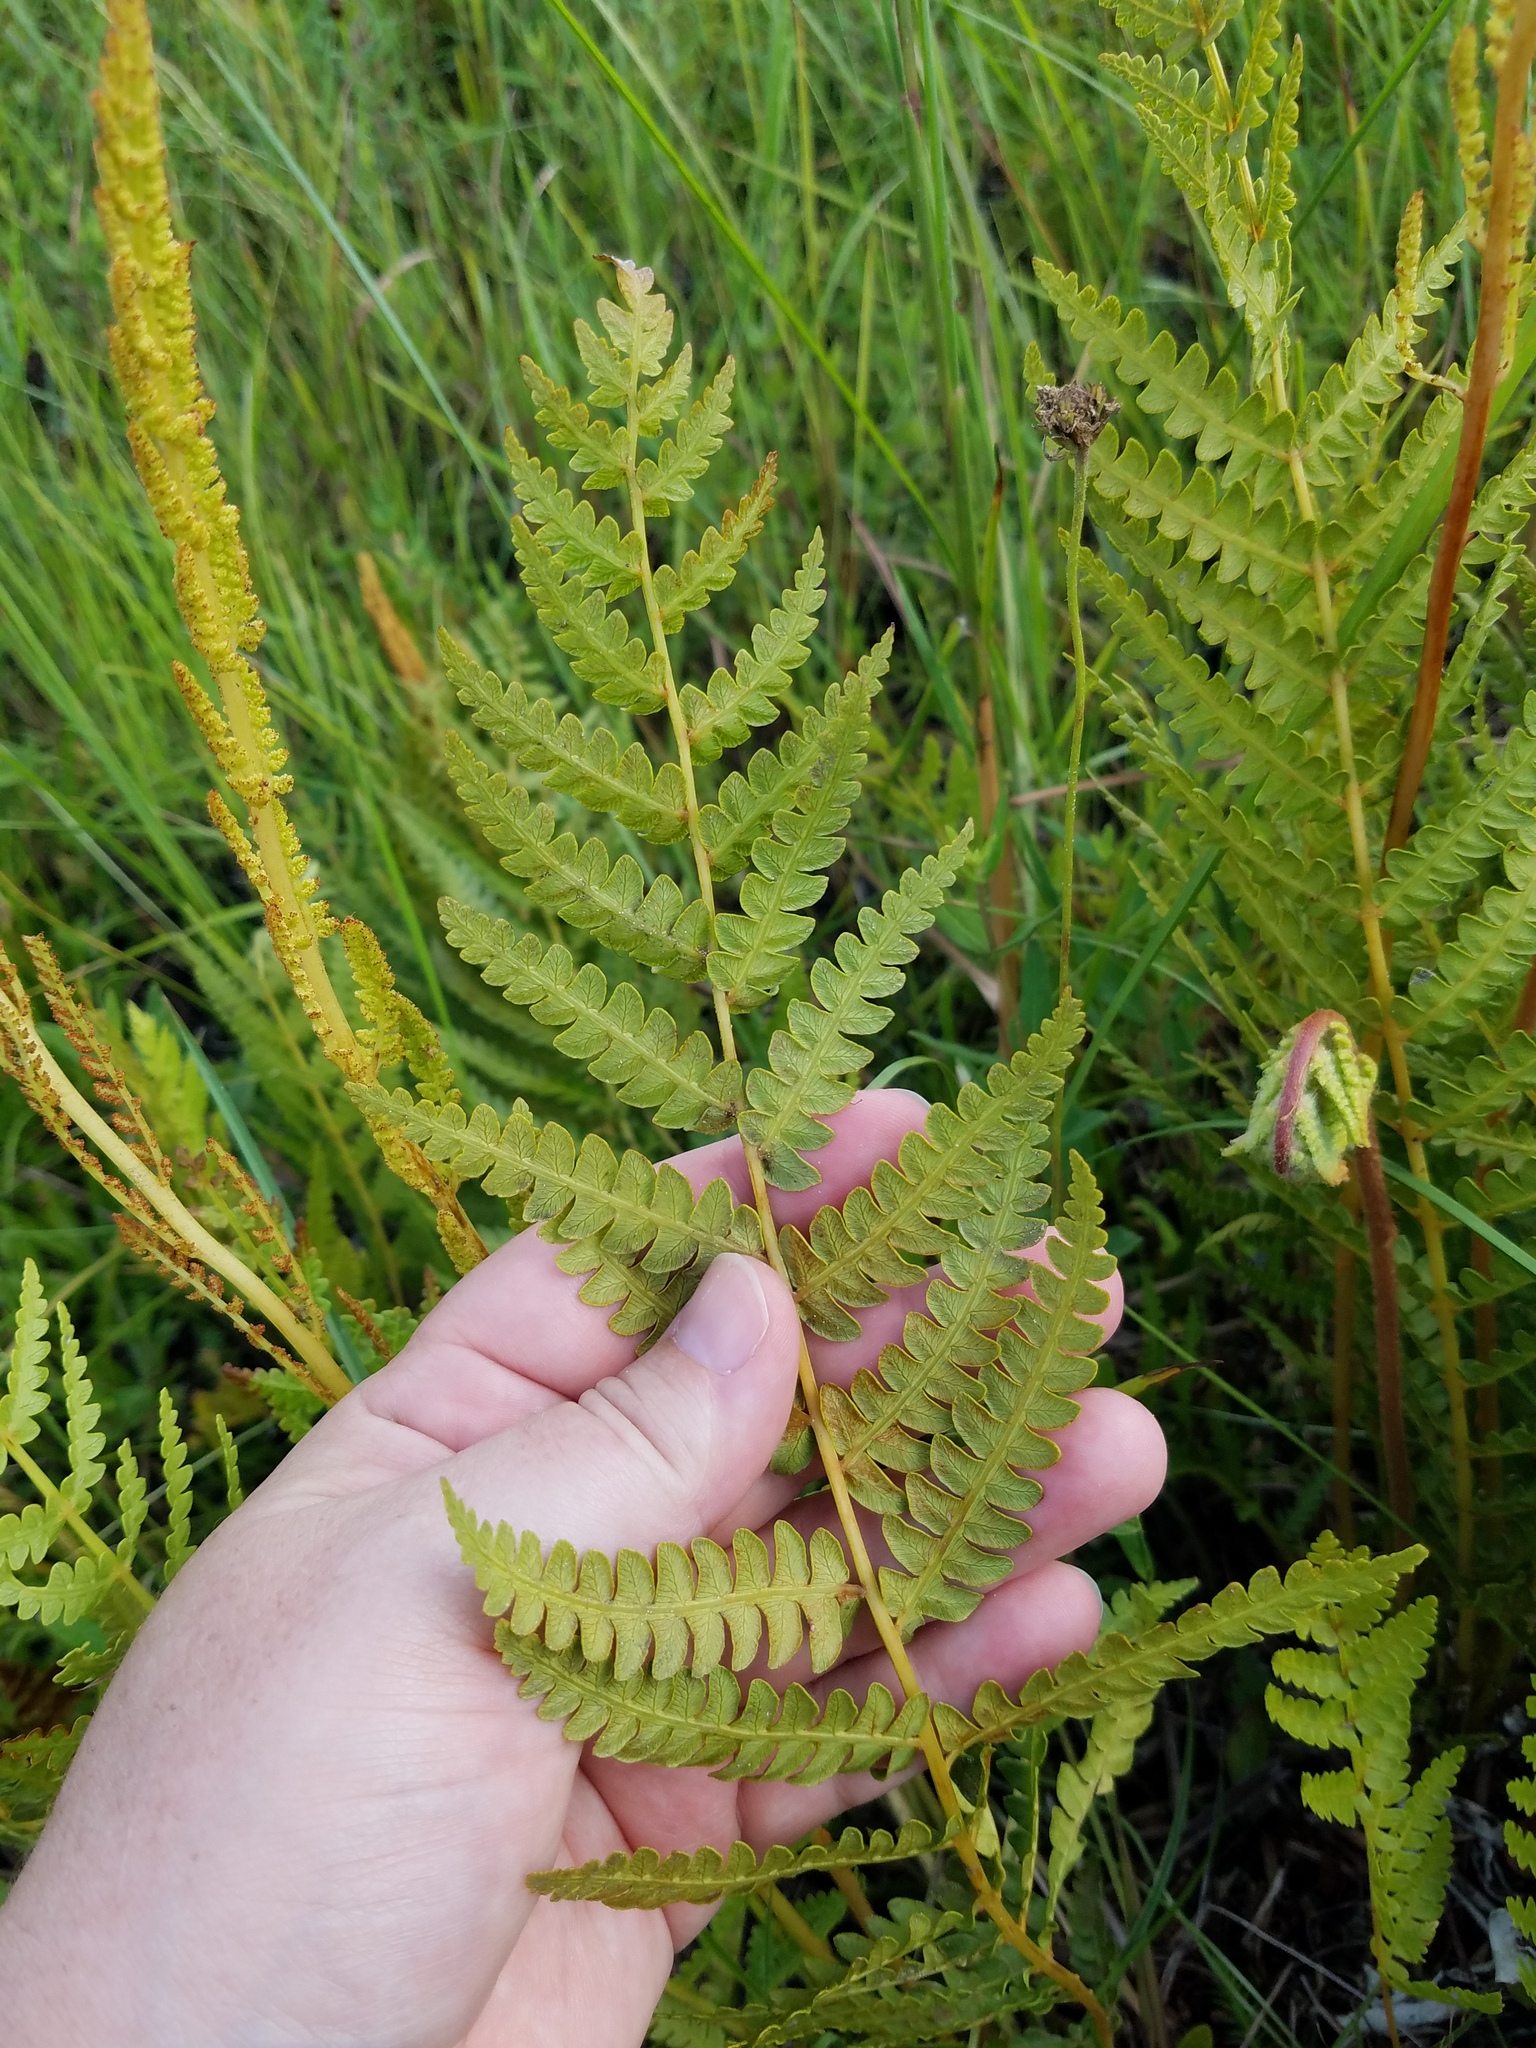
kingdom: Plantae
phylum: Tracheophyta
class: Polypodiopsida
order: Osmundales
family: Osmundaceae
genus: Osmundastrum
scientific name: Osmundastrum cinnamomeum
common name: Cinnamon fern
